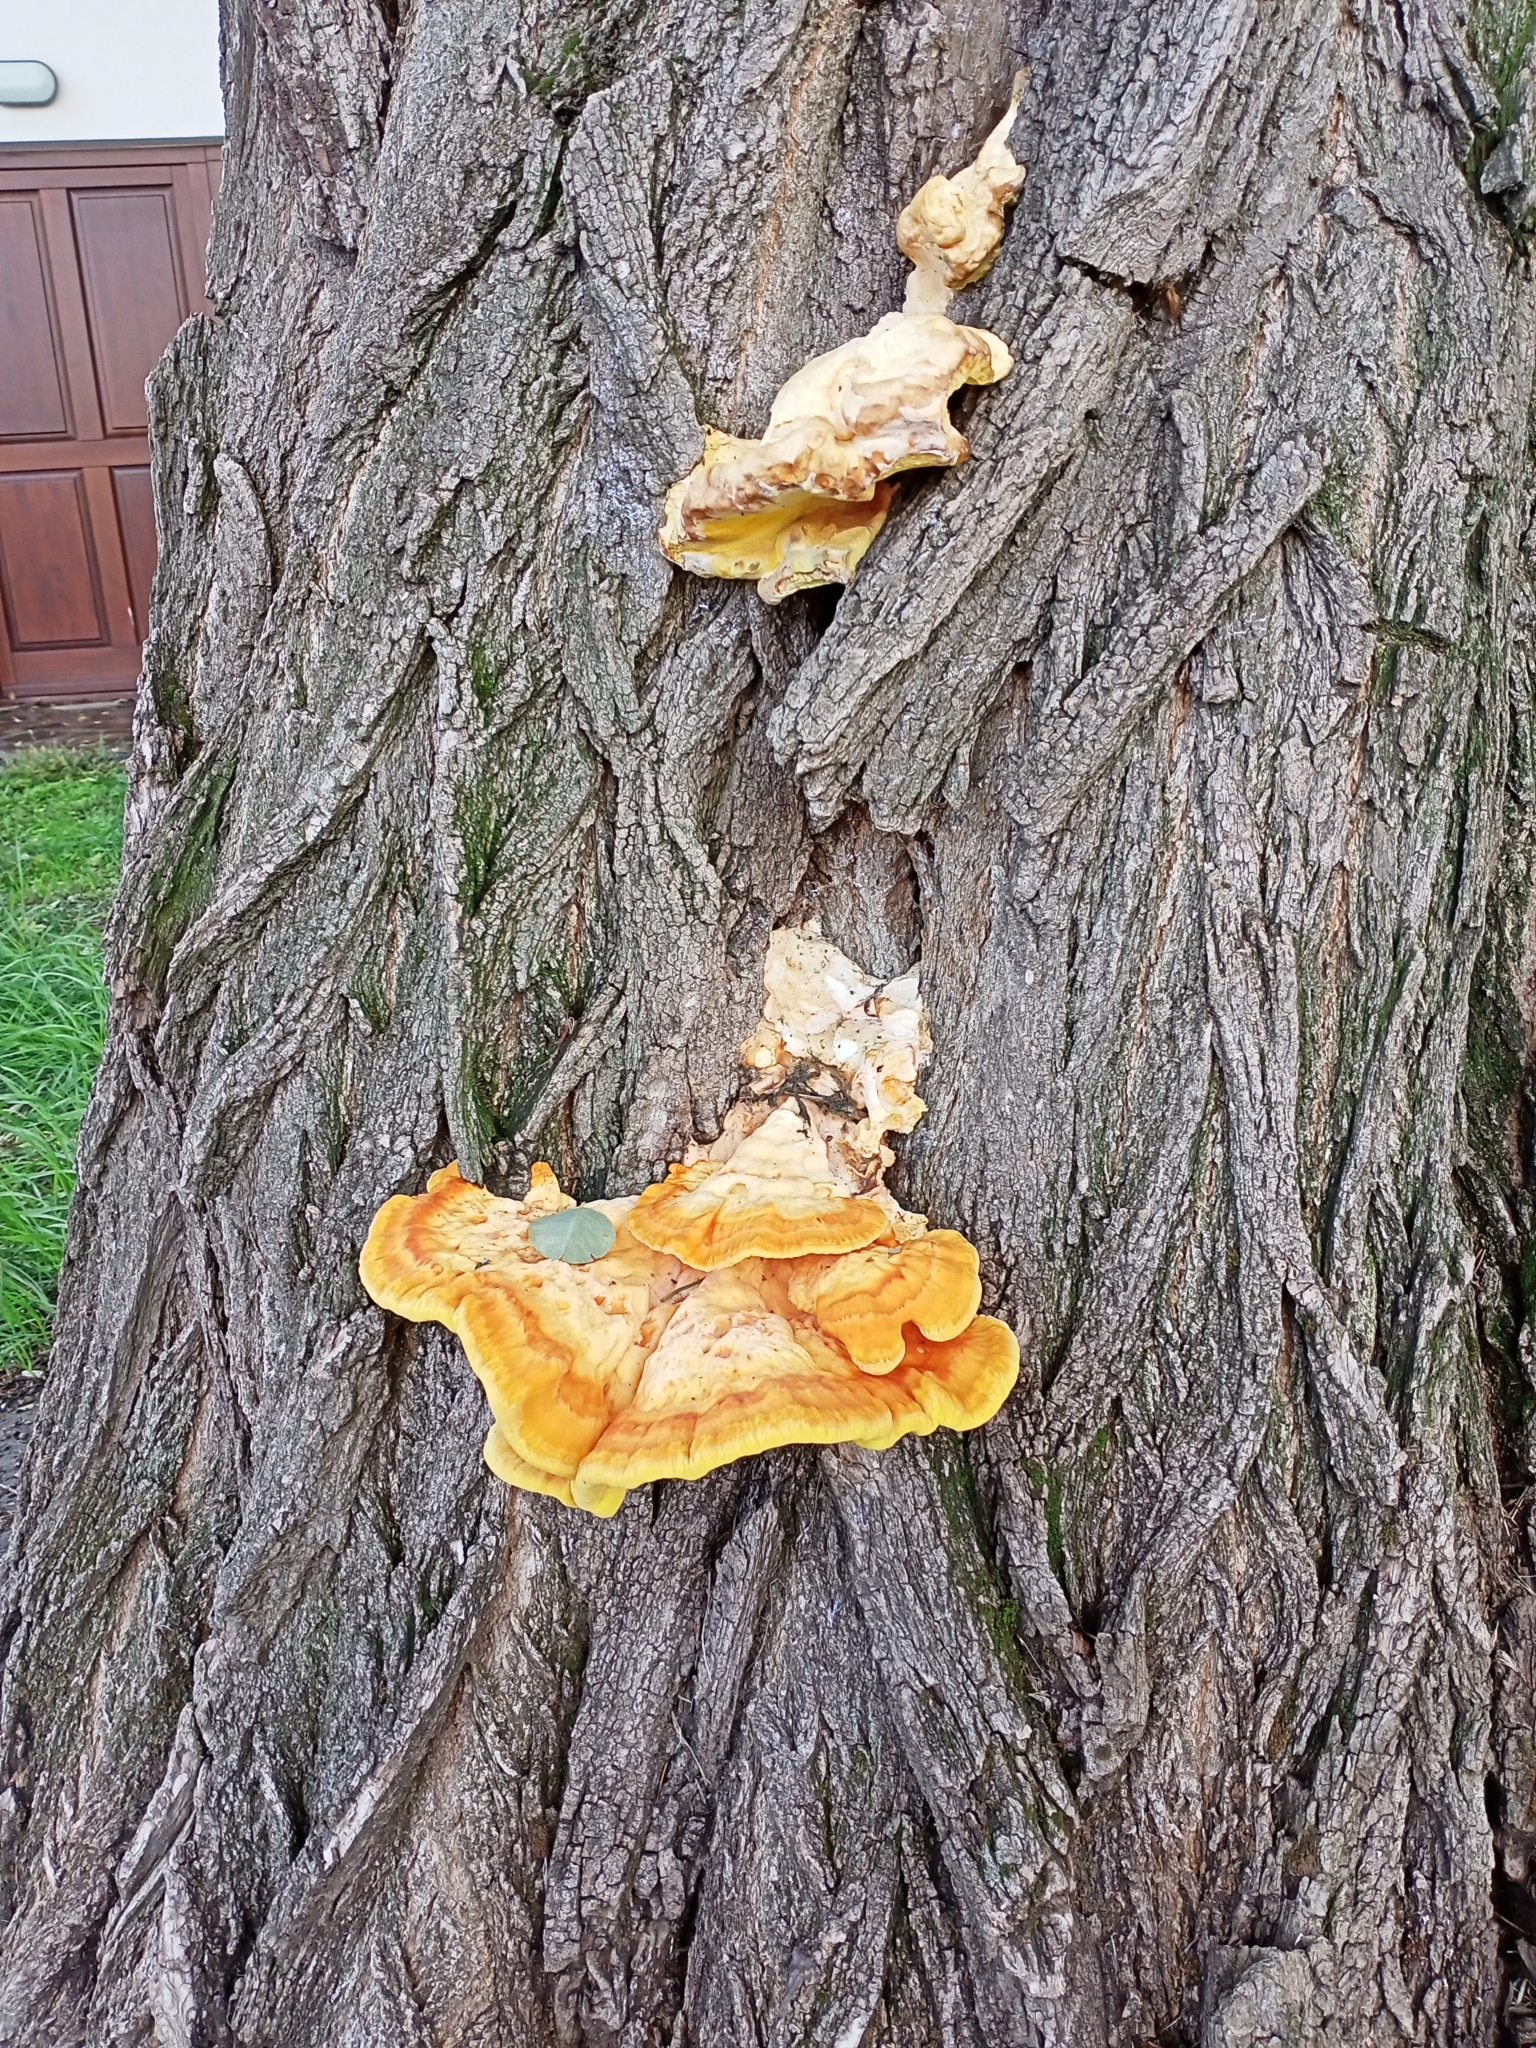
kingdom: Fungi
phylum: Basidiomycota
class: Agaricomycetes
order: Polyporales
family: Laetiporaceae
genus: Laetiporus
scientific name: Laetiporus sulphureus
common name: Chicken of the woods
